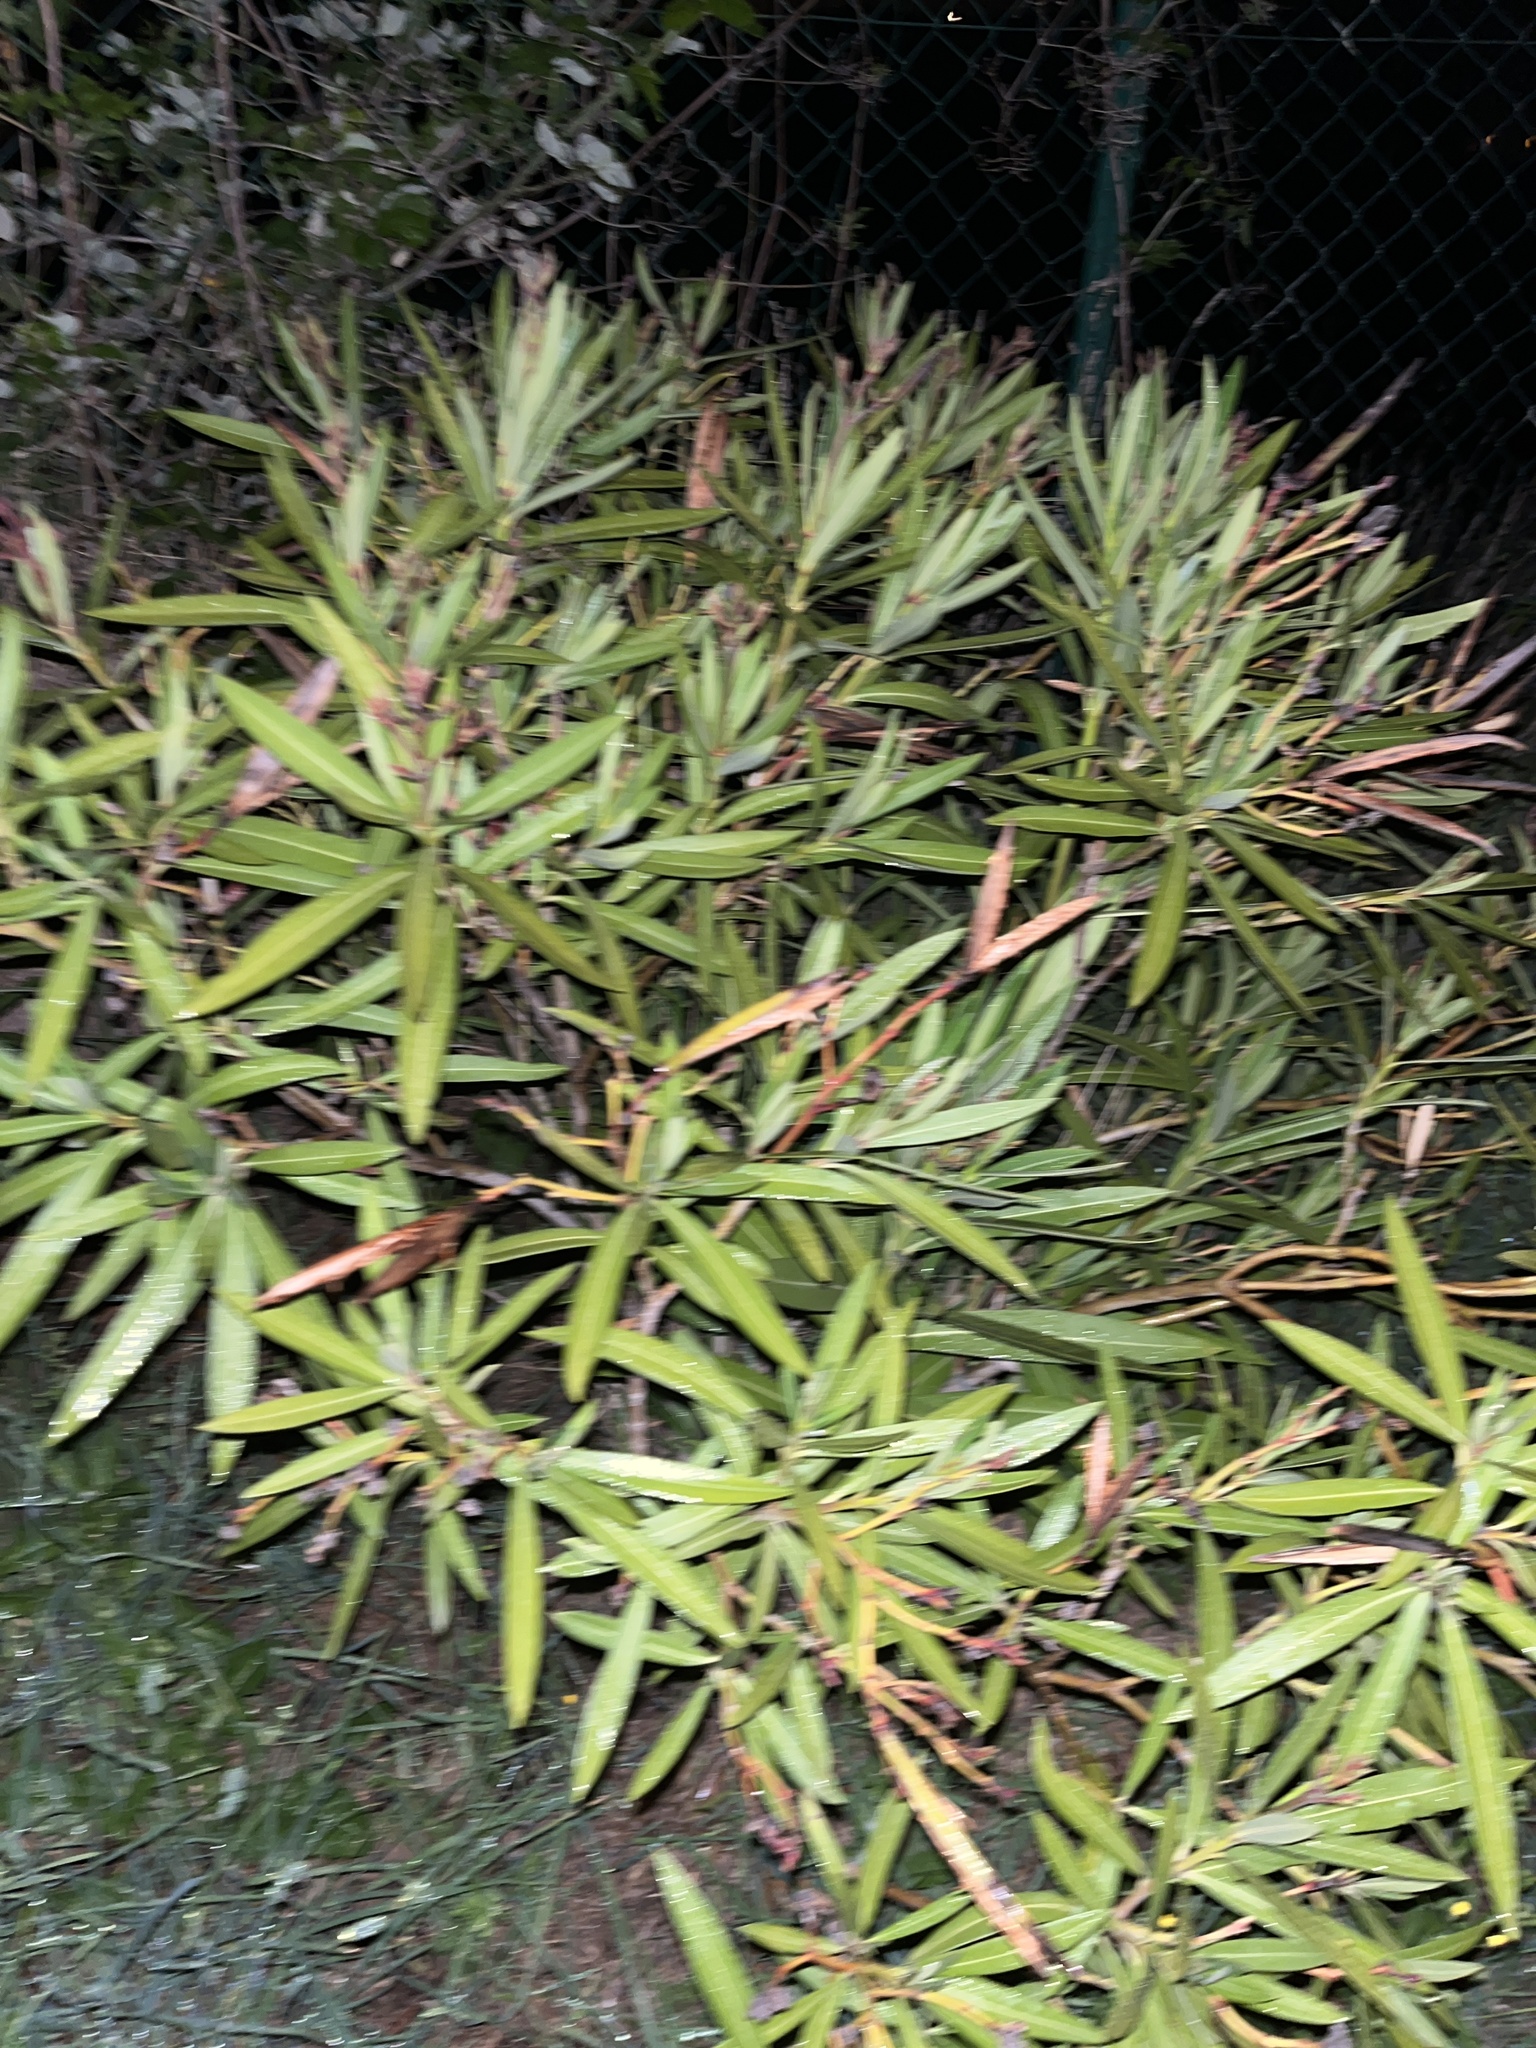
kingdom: Plantae
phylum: Tracheophyta
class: Magnoliopsida
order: Gentianales
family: Apocynaceae
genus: Nerium
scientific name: Nerium oleander
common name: Oleander
